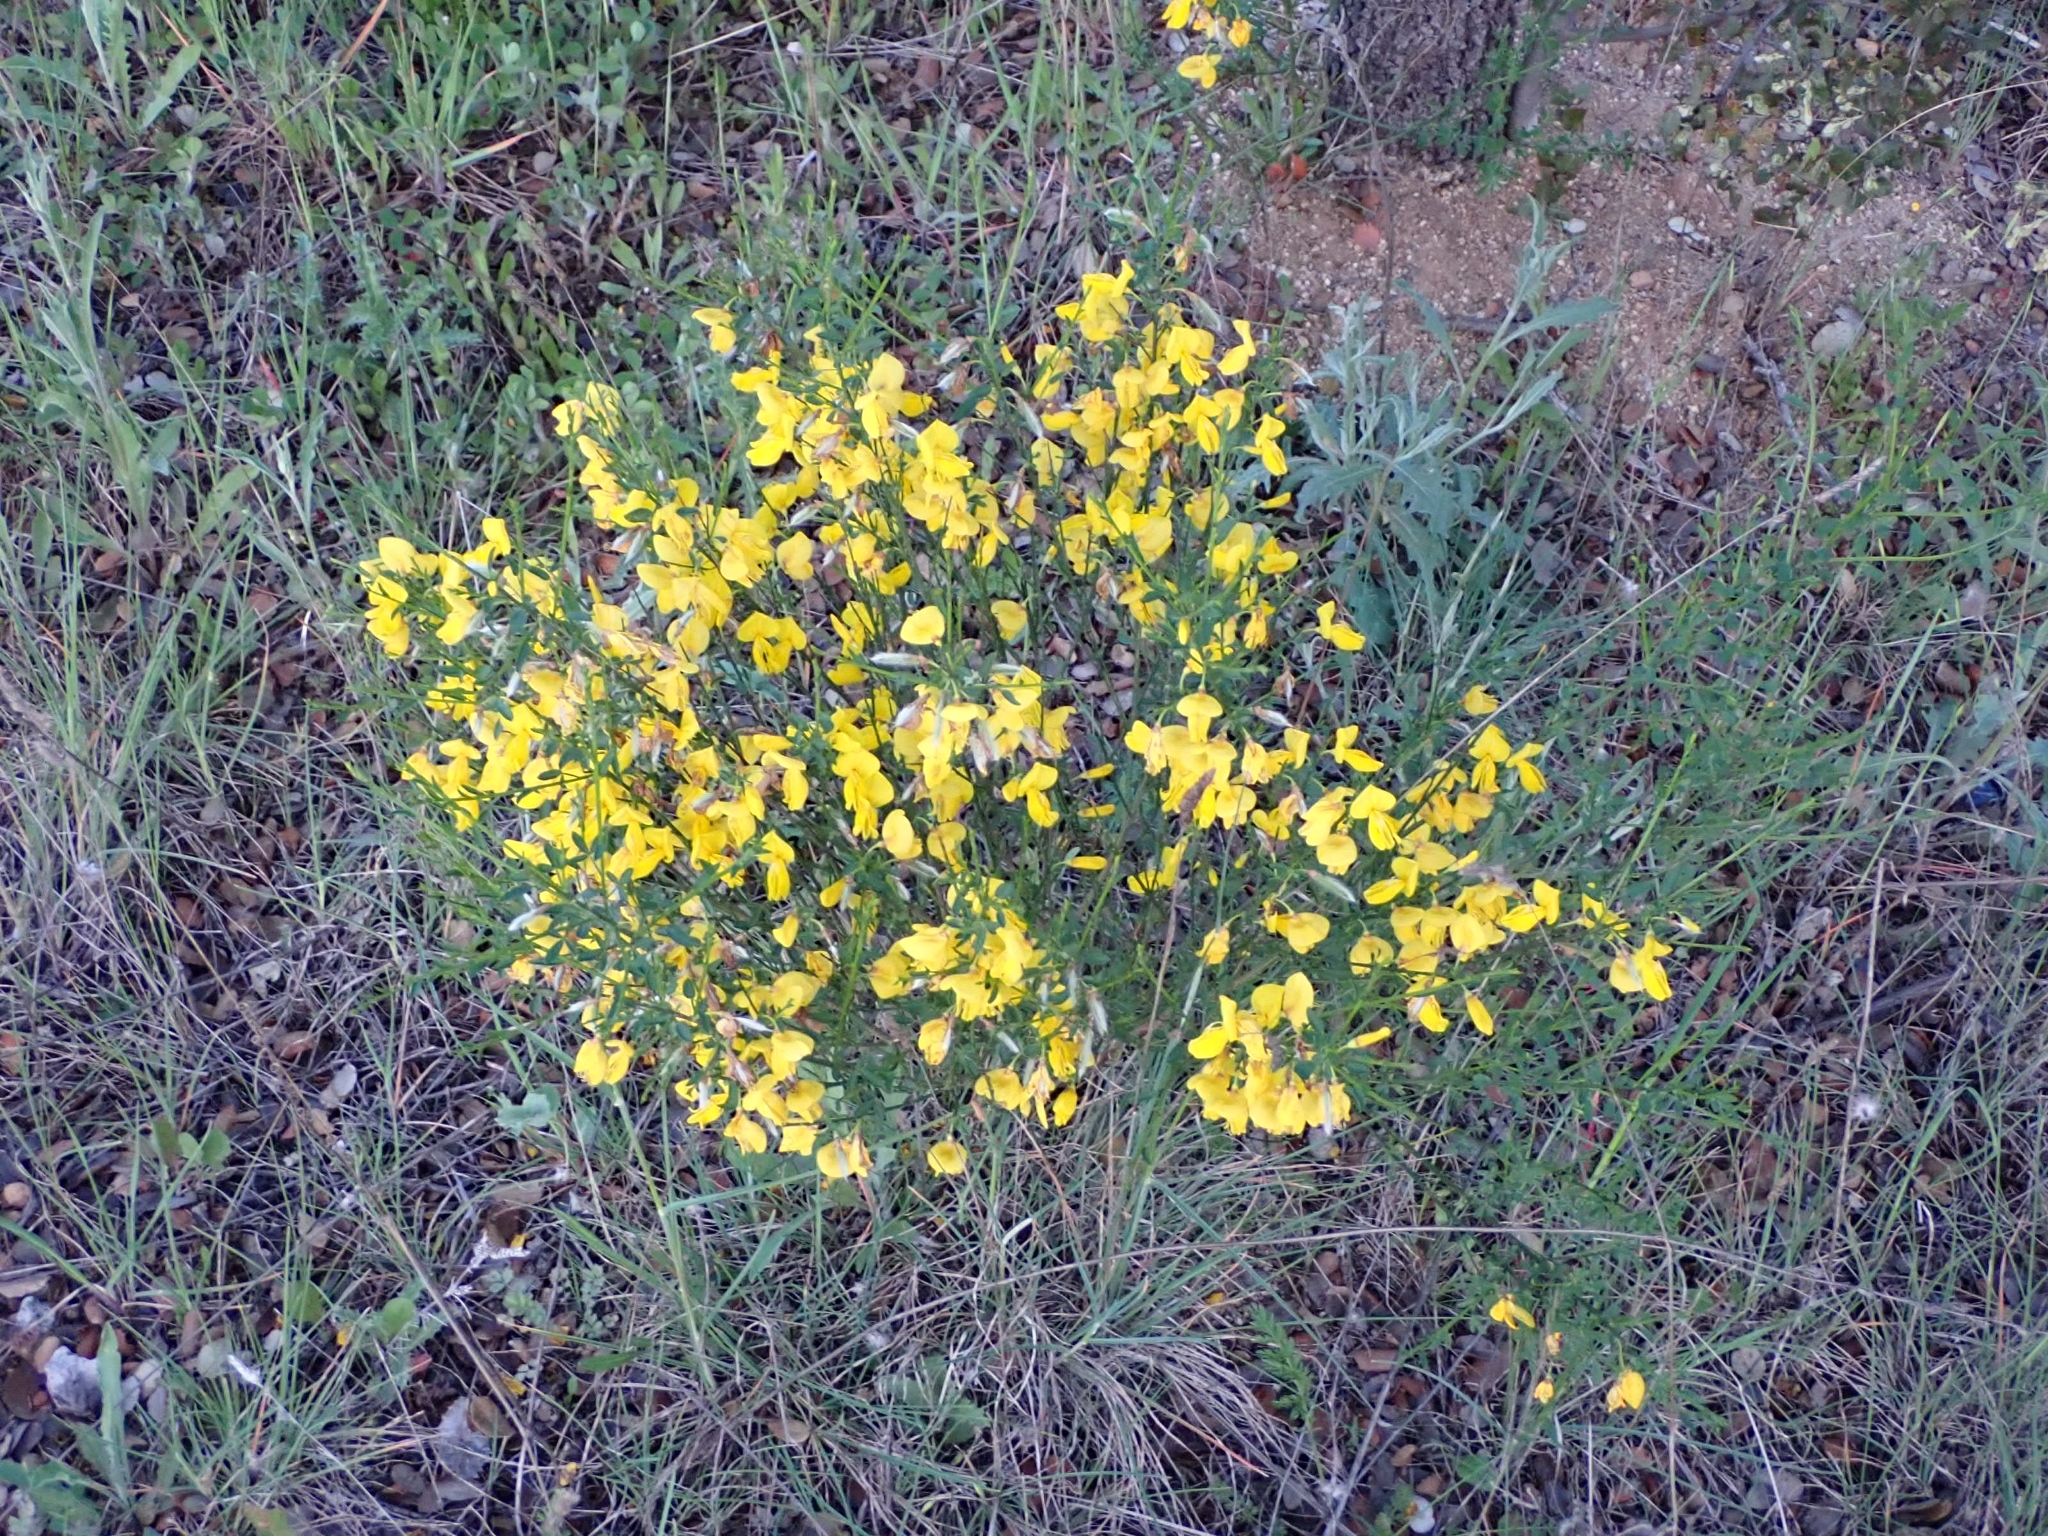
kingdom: Plantae
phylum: Tracheophyta
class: Magnoliopsida
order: Fabales
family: Fabaceae
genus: Cytisus
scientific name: Cytisus scoparius
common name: Scotch broom
